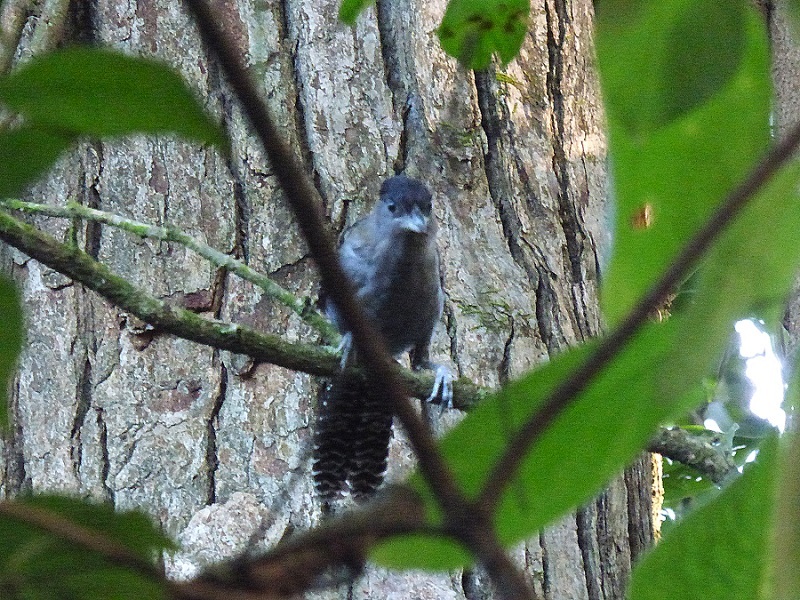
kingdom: Animalia
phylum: Chordata
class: Aves
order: Passeriformes
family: Thamnophilidae
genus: Batara
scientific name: Batara cinerea
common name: Giant antshrike
